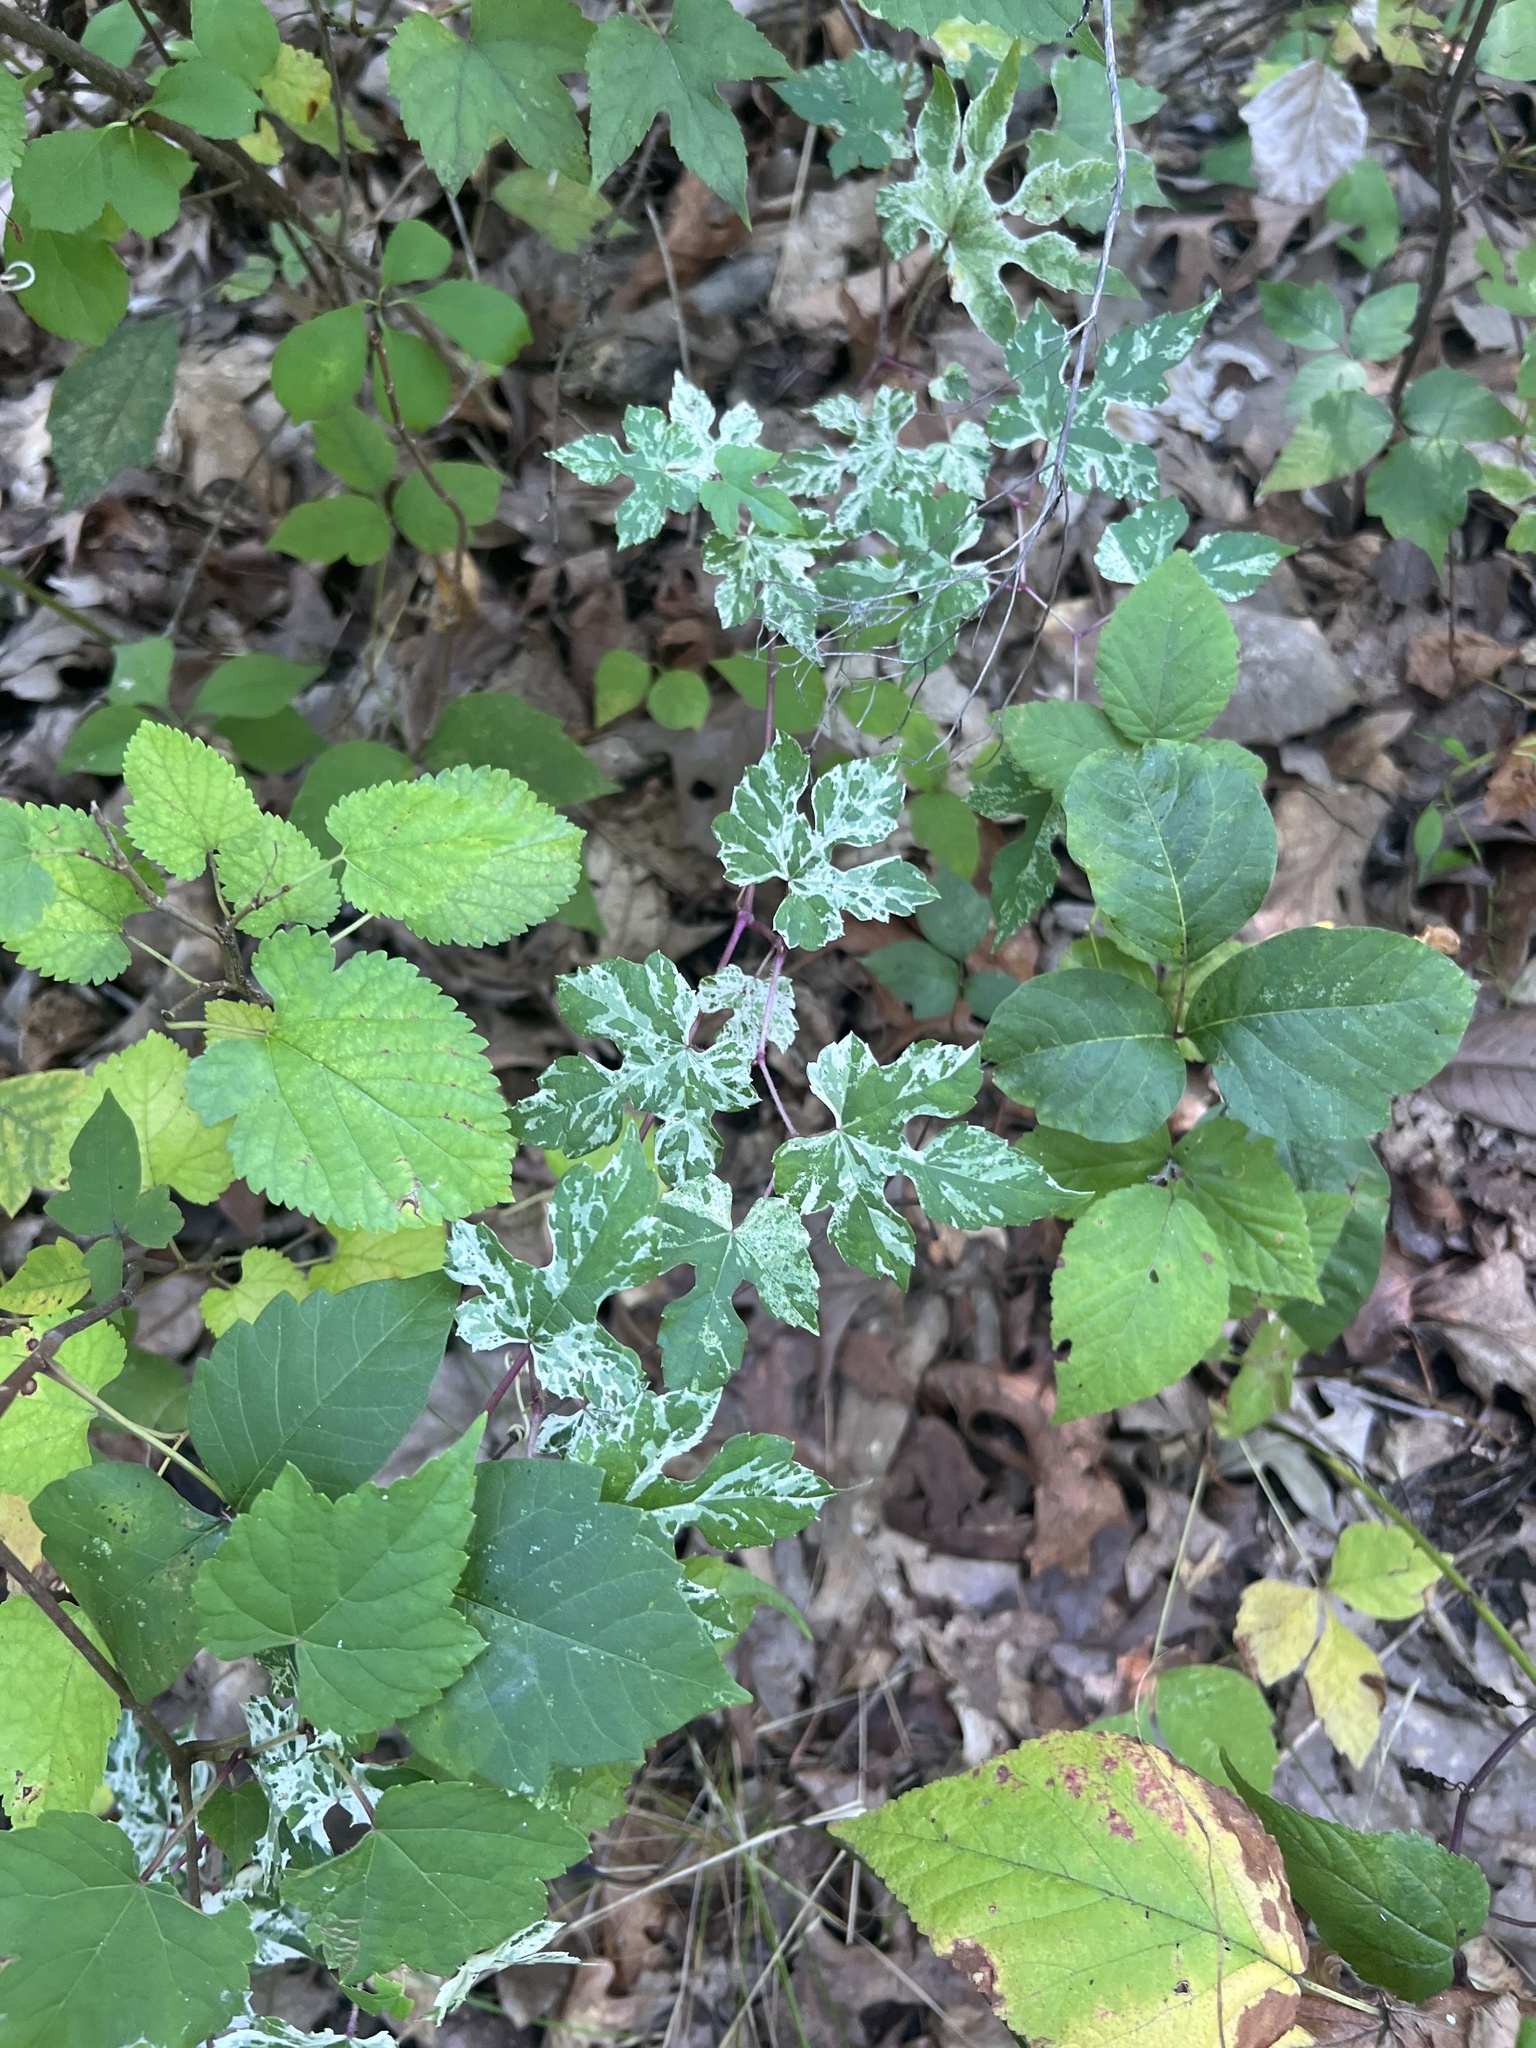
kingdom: Plantae
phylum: Tracheophyta
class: Magnoliopsida
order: Vitales
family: Vitaceae
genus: Ampelopsis
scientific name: Ampelopsis glandulosa
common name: Amur peppervine
